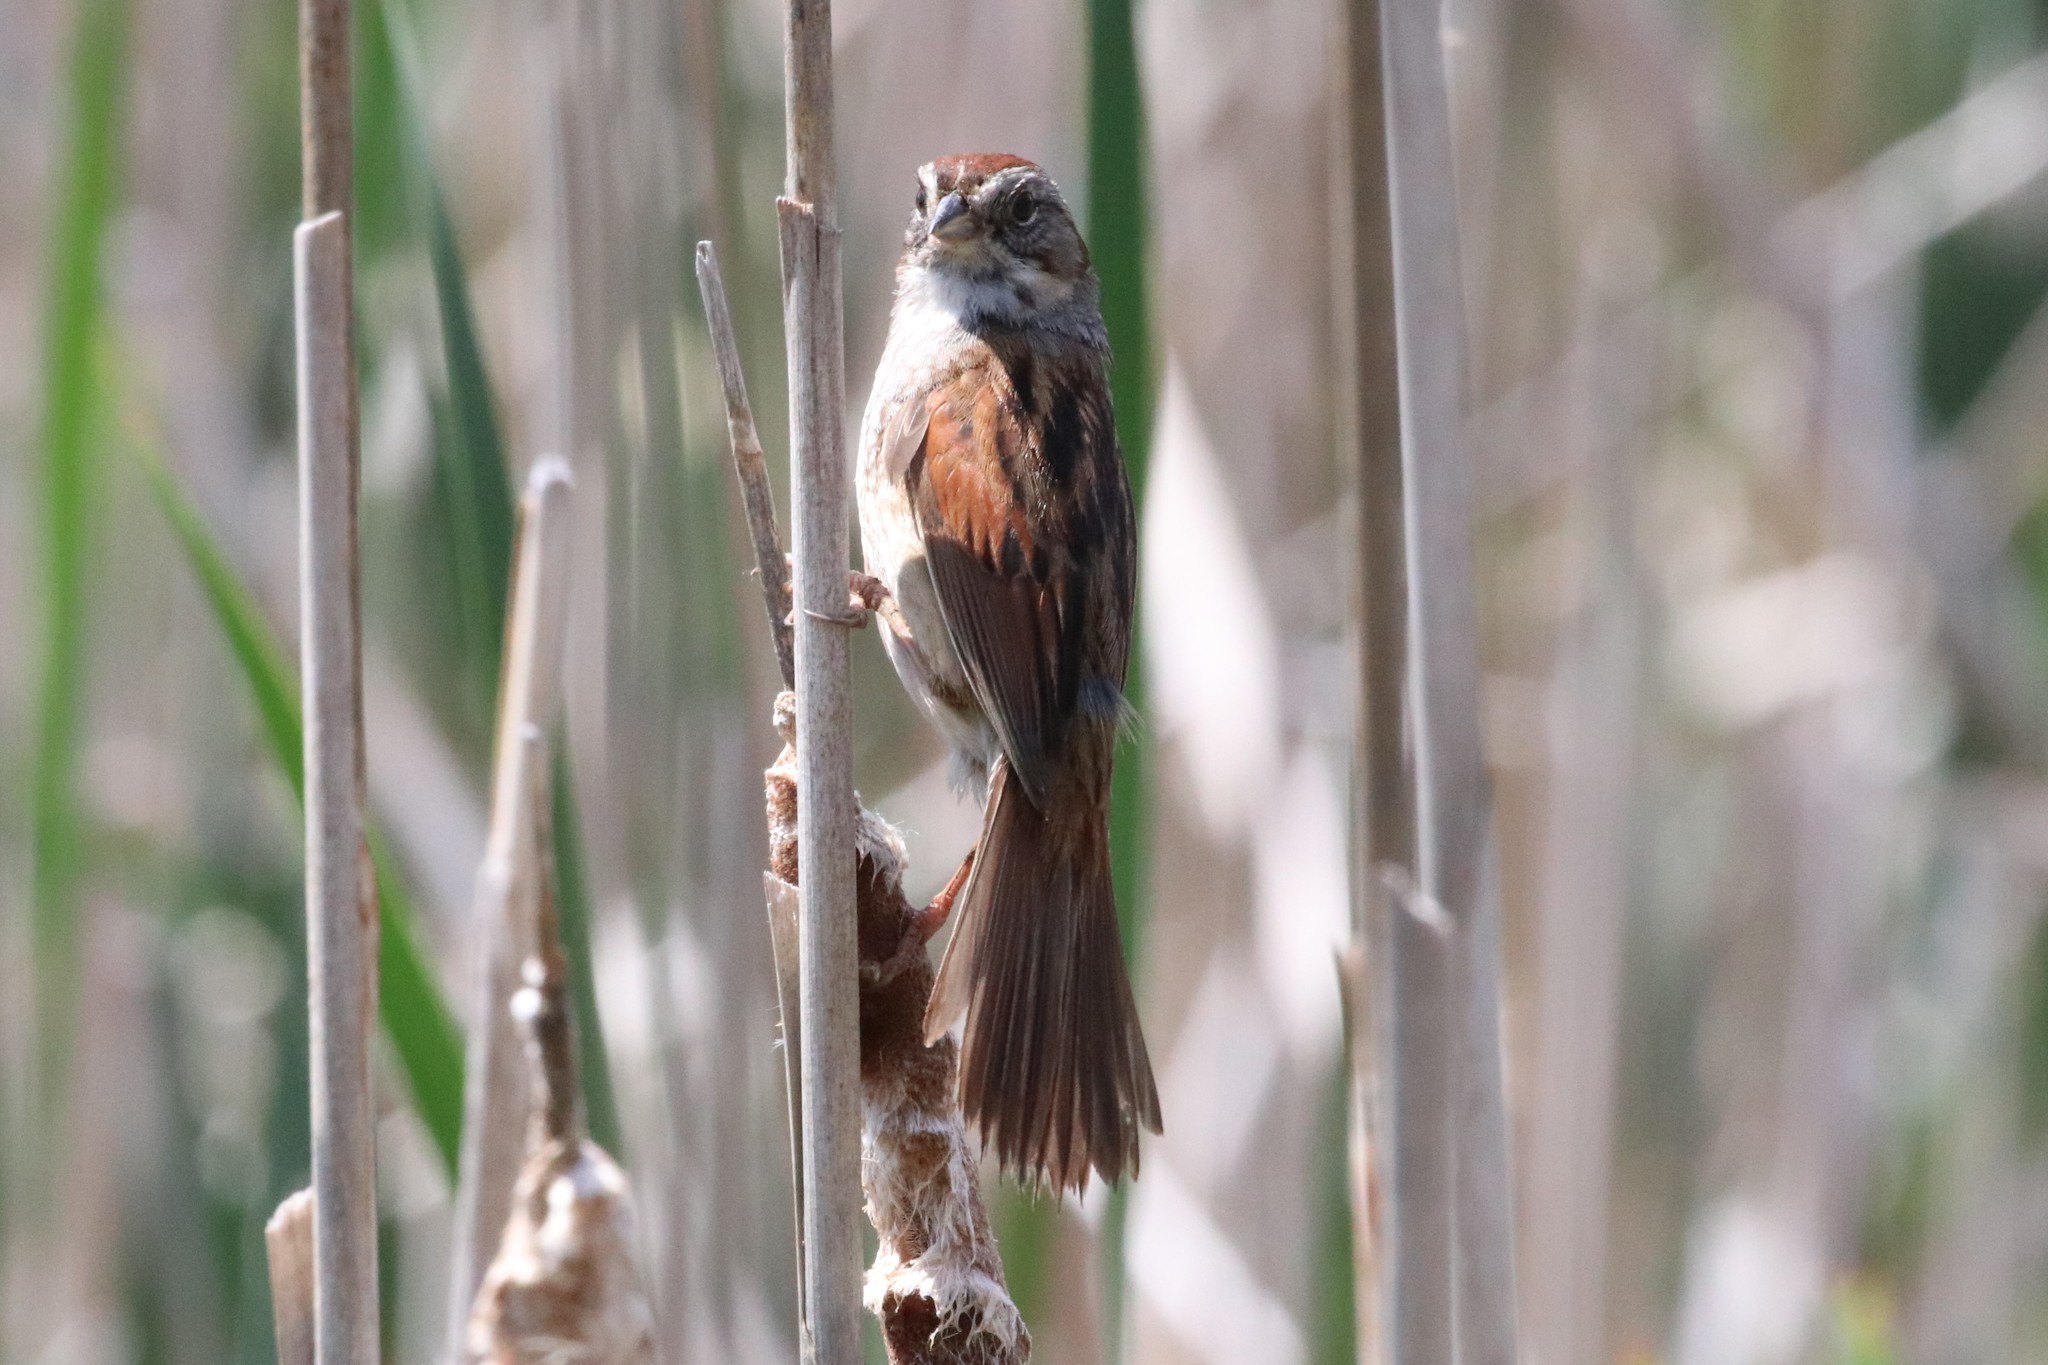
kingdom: Animalia
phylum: Chordata
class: Aves
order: Passeriformes
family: Passerellidae
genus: Melospiza
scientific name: Melospiza georgiana
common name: Swamp sparrow
